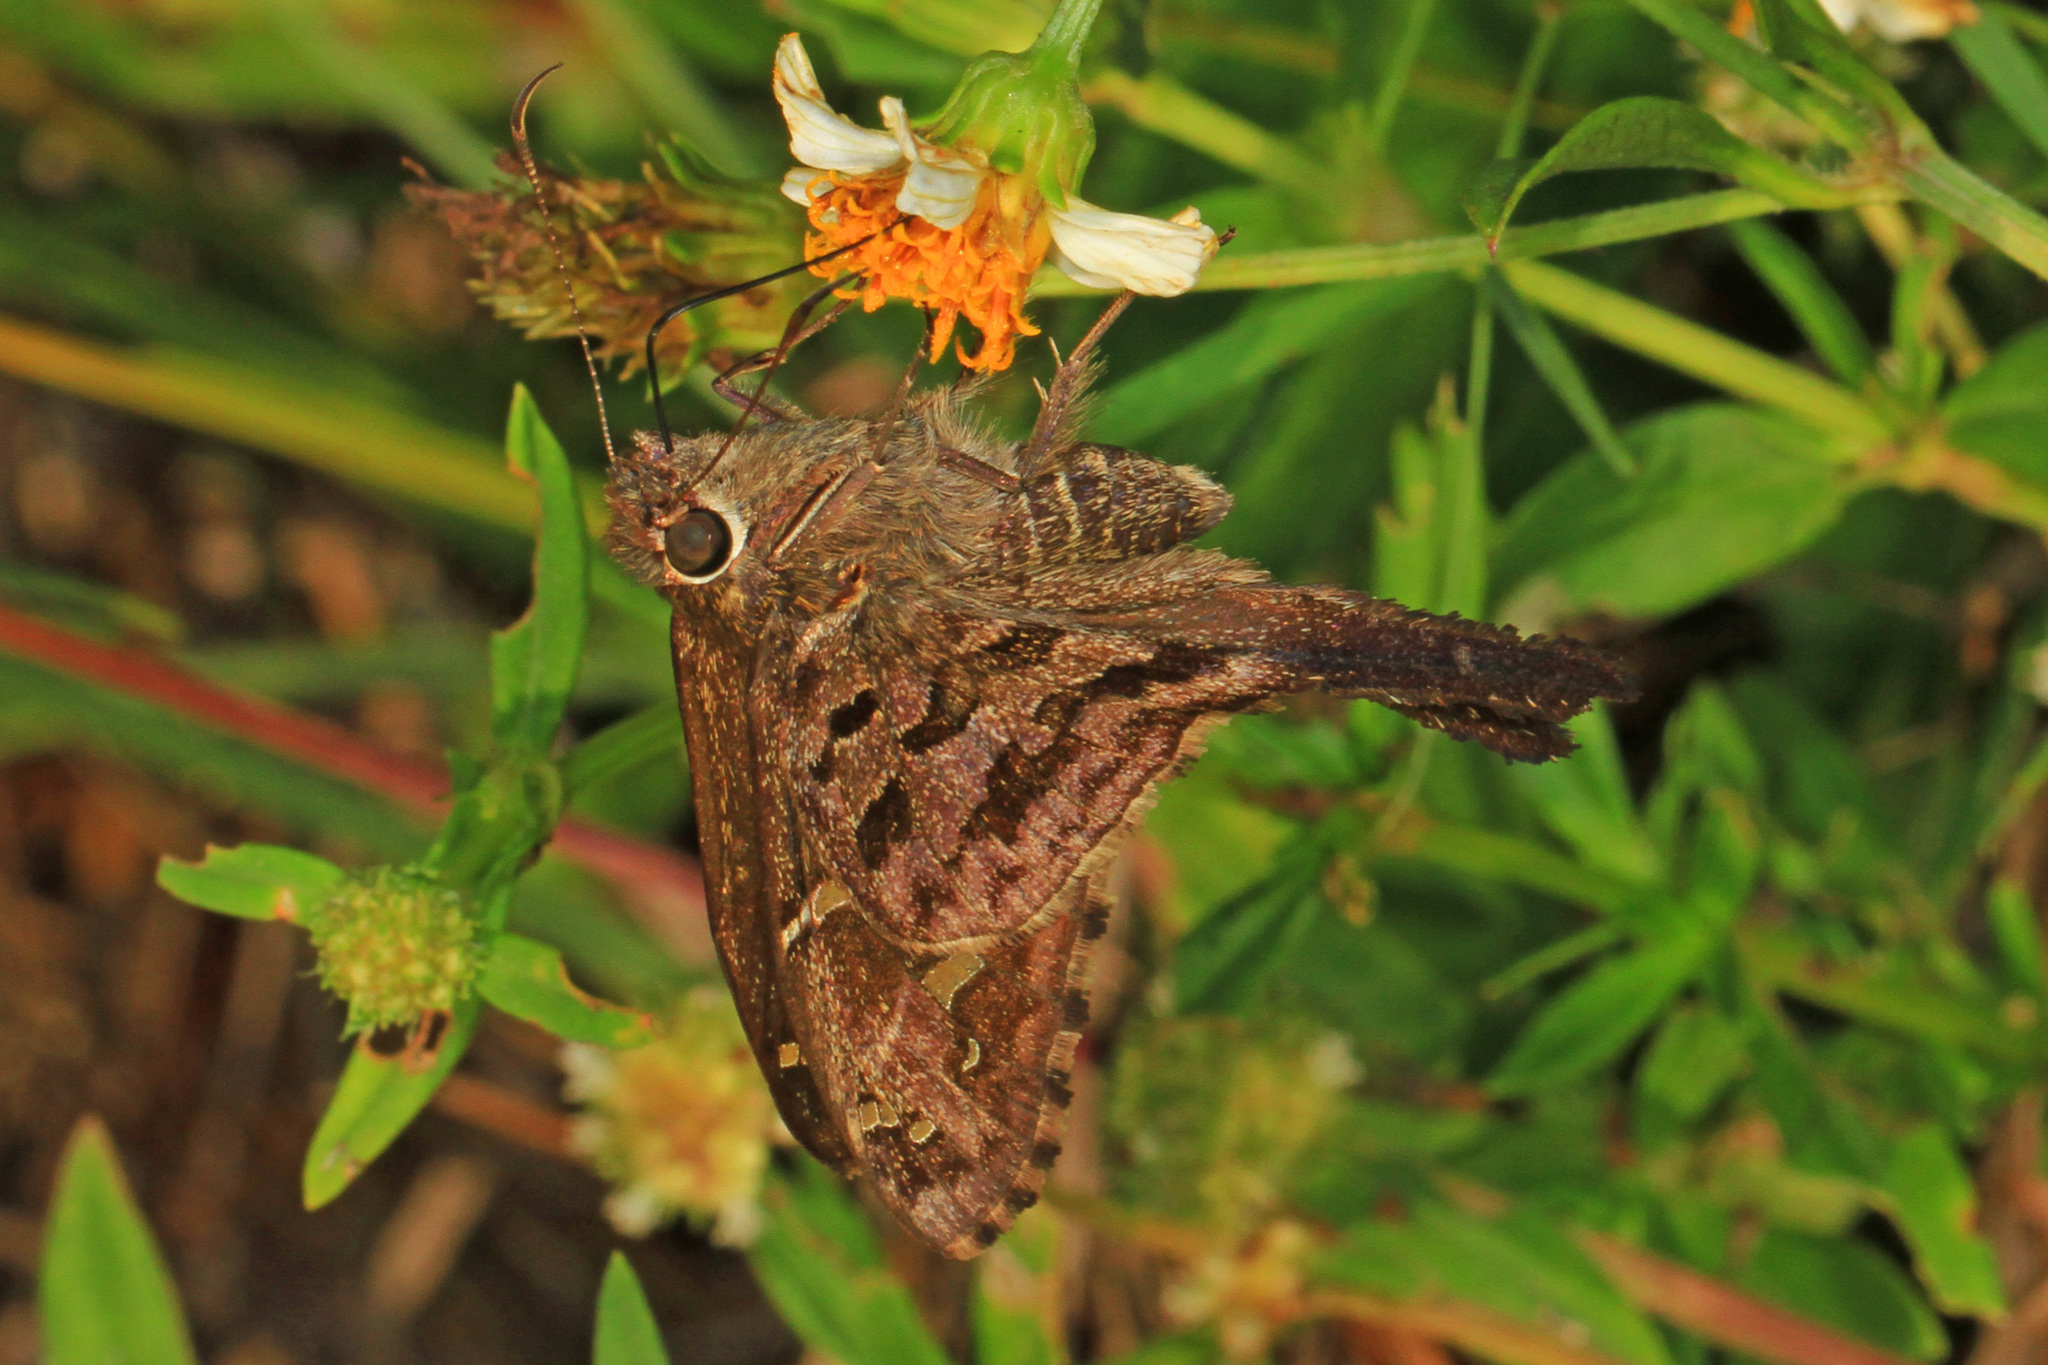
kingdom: Animalia
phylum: Arthropoda
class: Insecta
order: Lepidoptera
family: Hesperiidae
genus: Thorybes
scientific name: Thorybes
